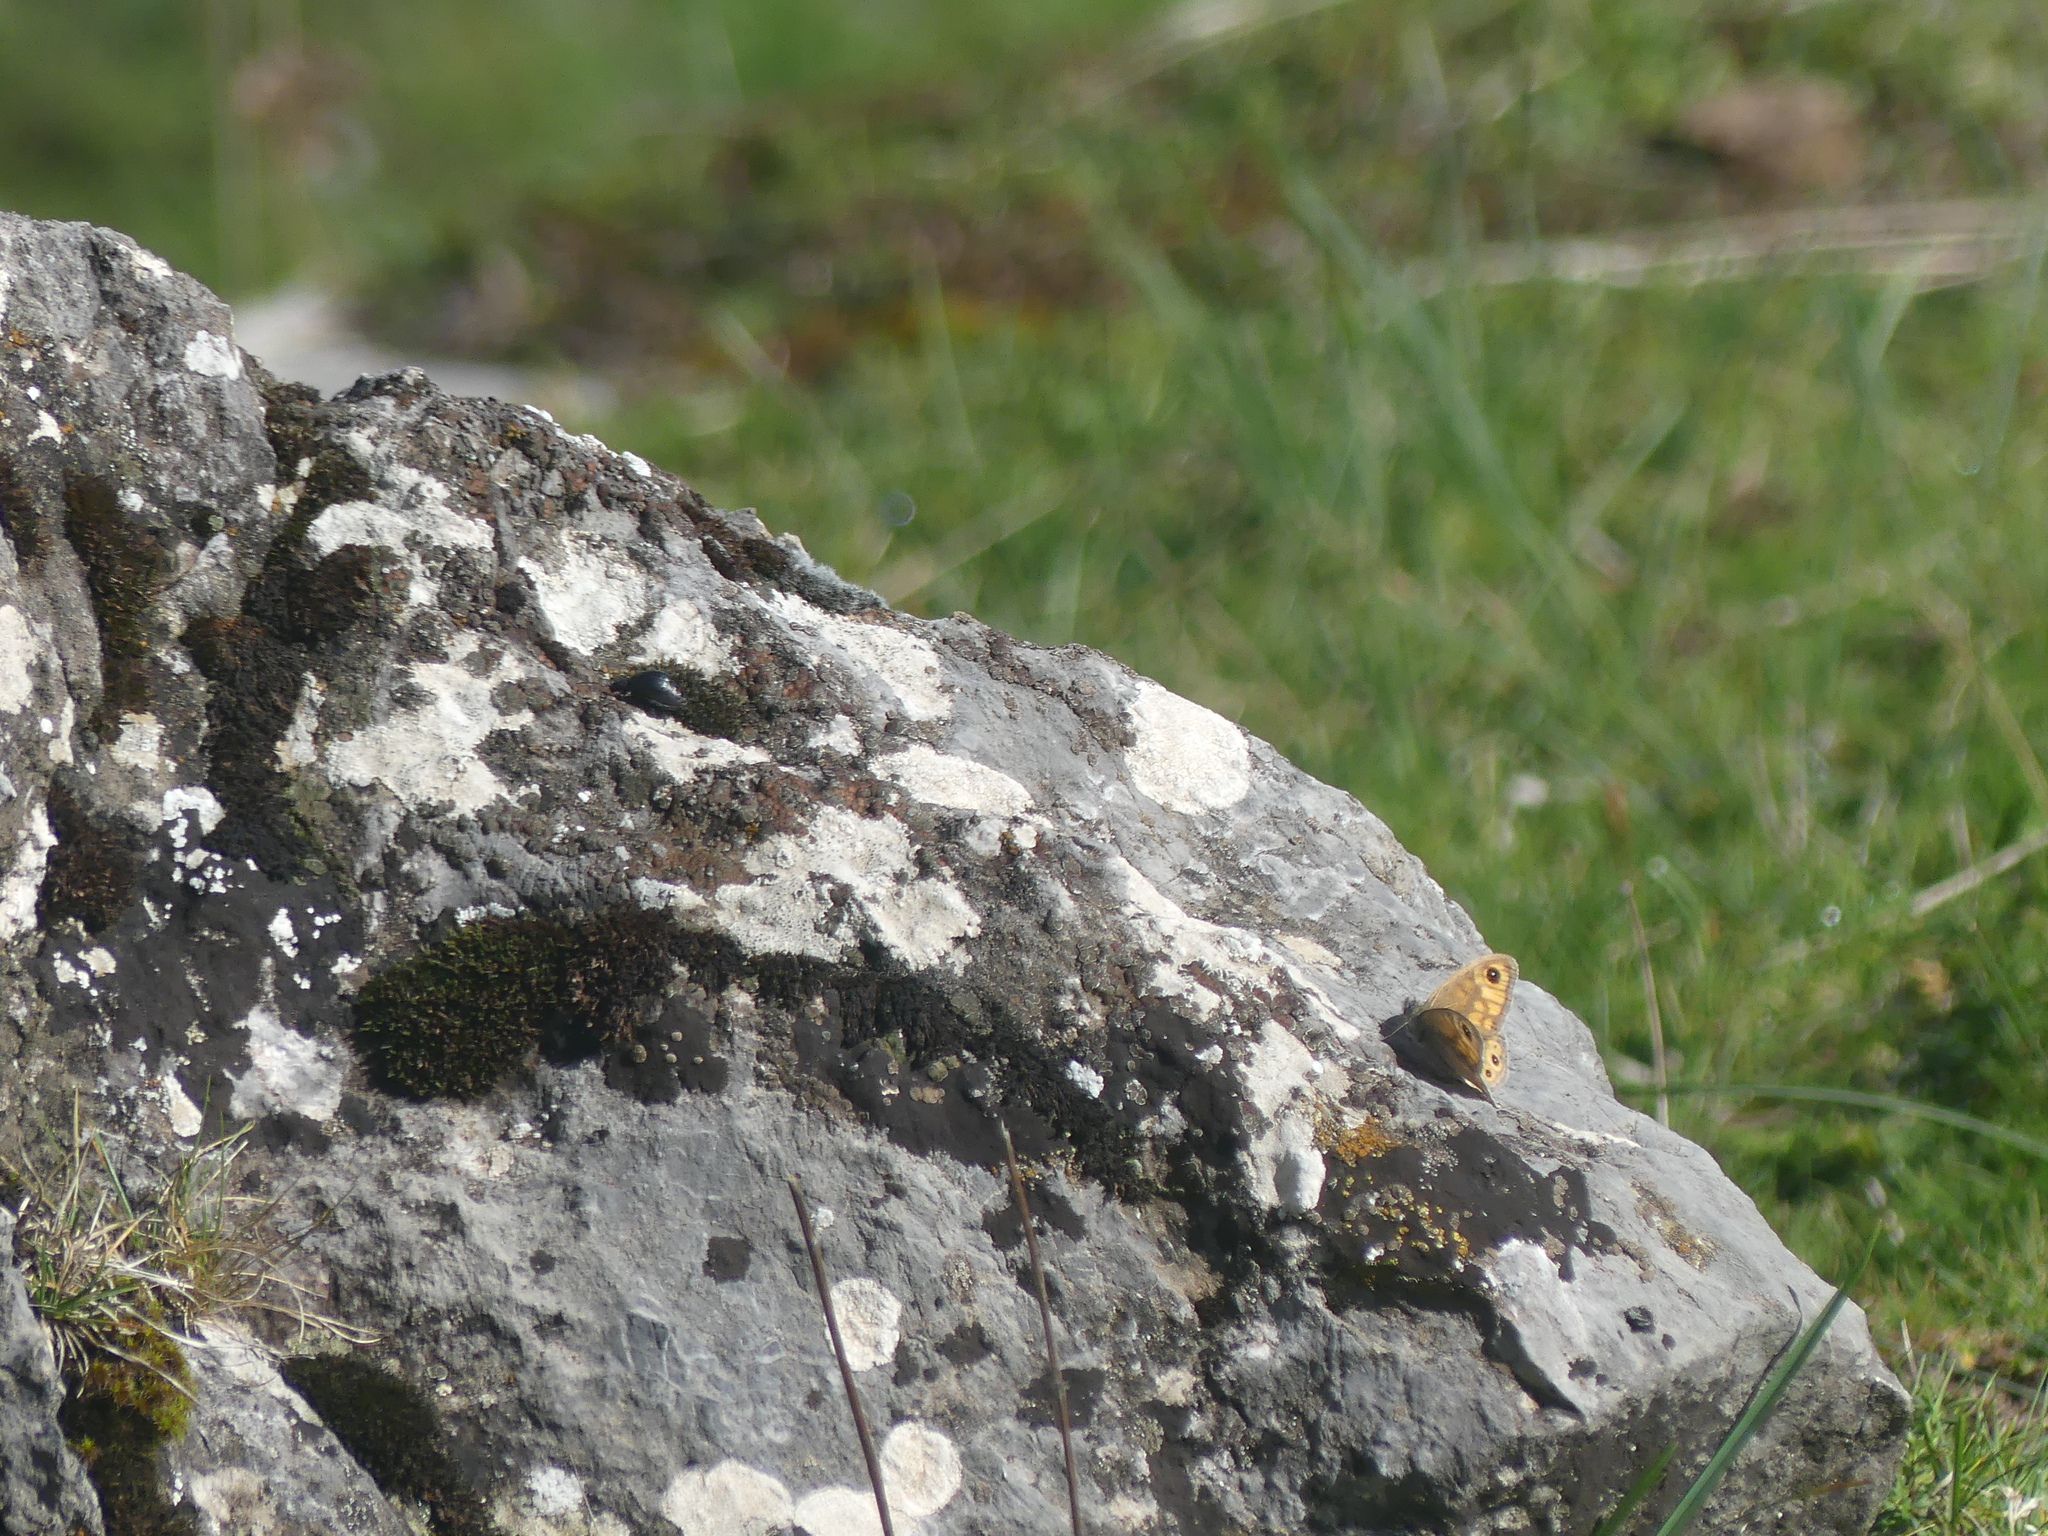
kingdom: Animalia
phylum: Arthropoda
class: Insecta
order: Lepidoptera
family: Nymphalidae
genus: Pararge
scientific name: Pararge Lasiommata maera
